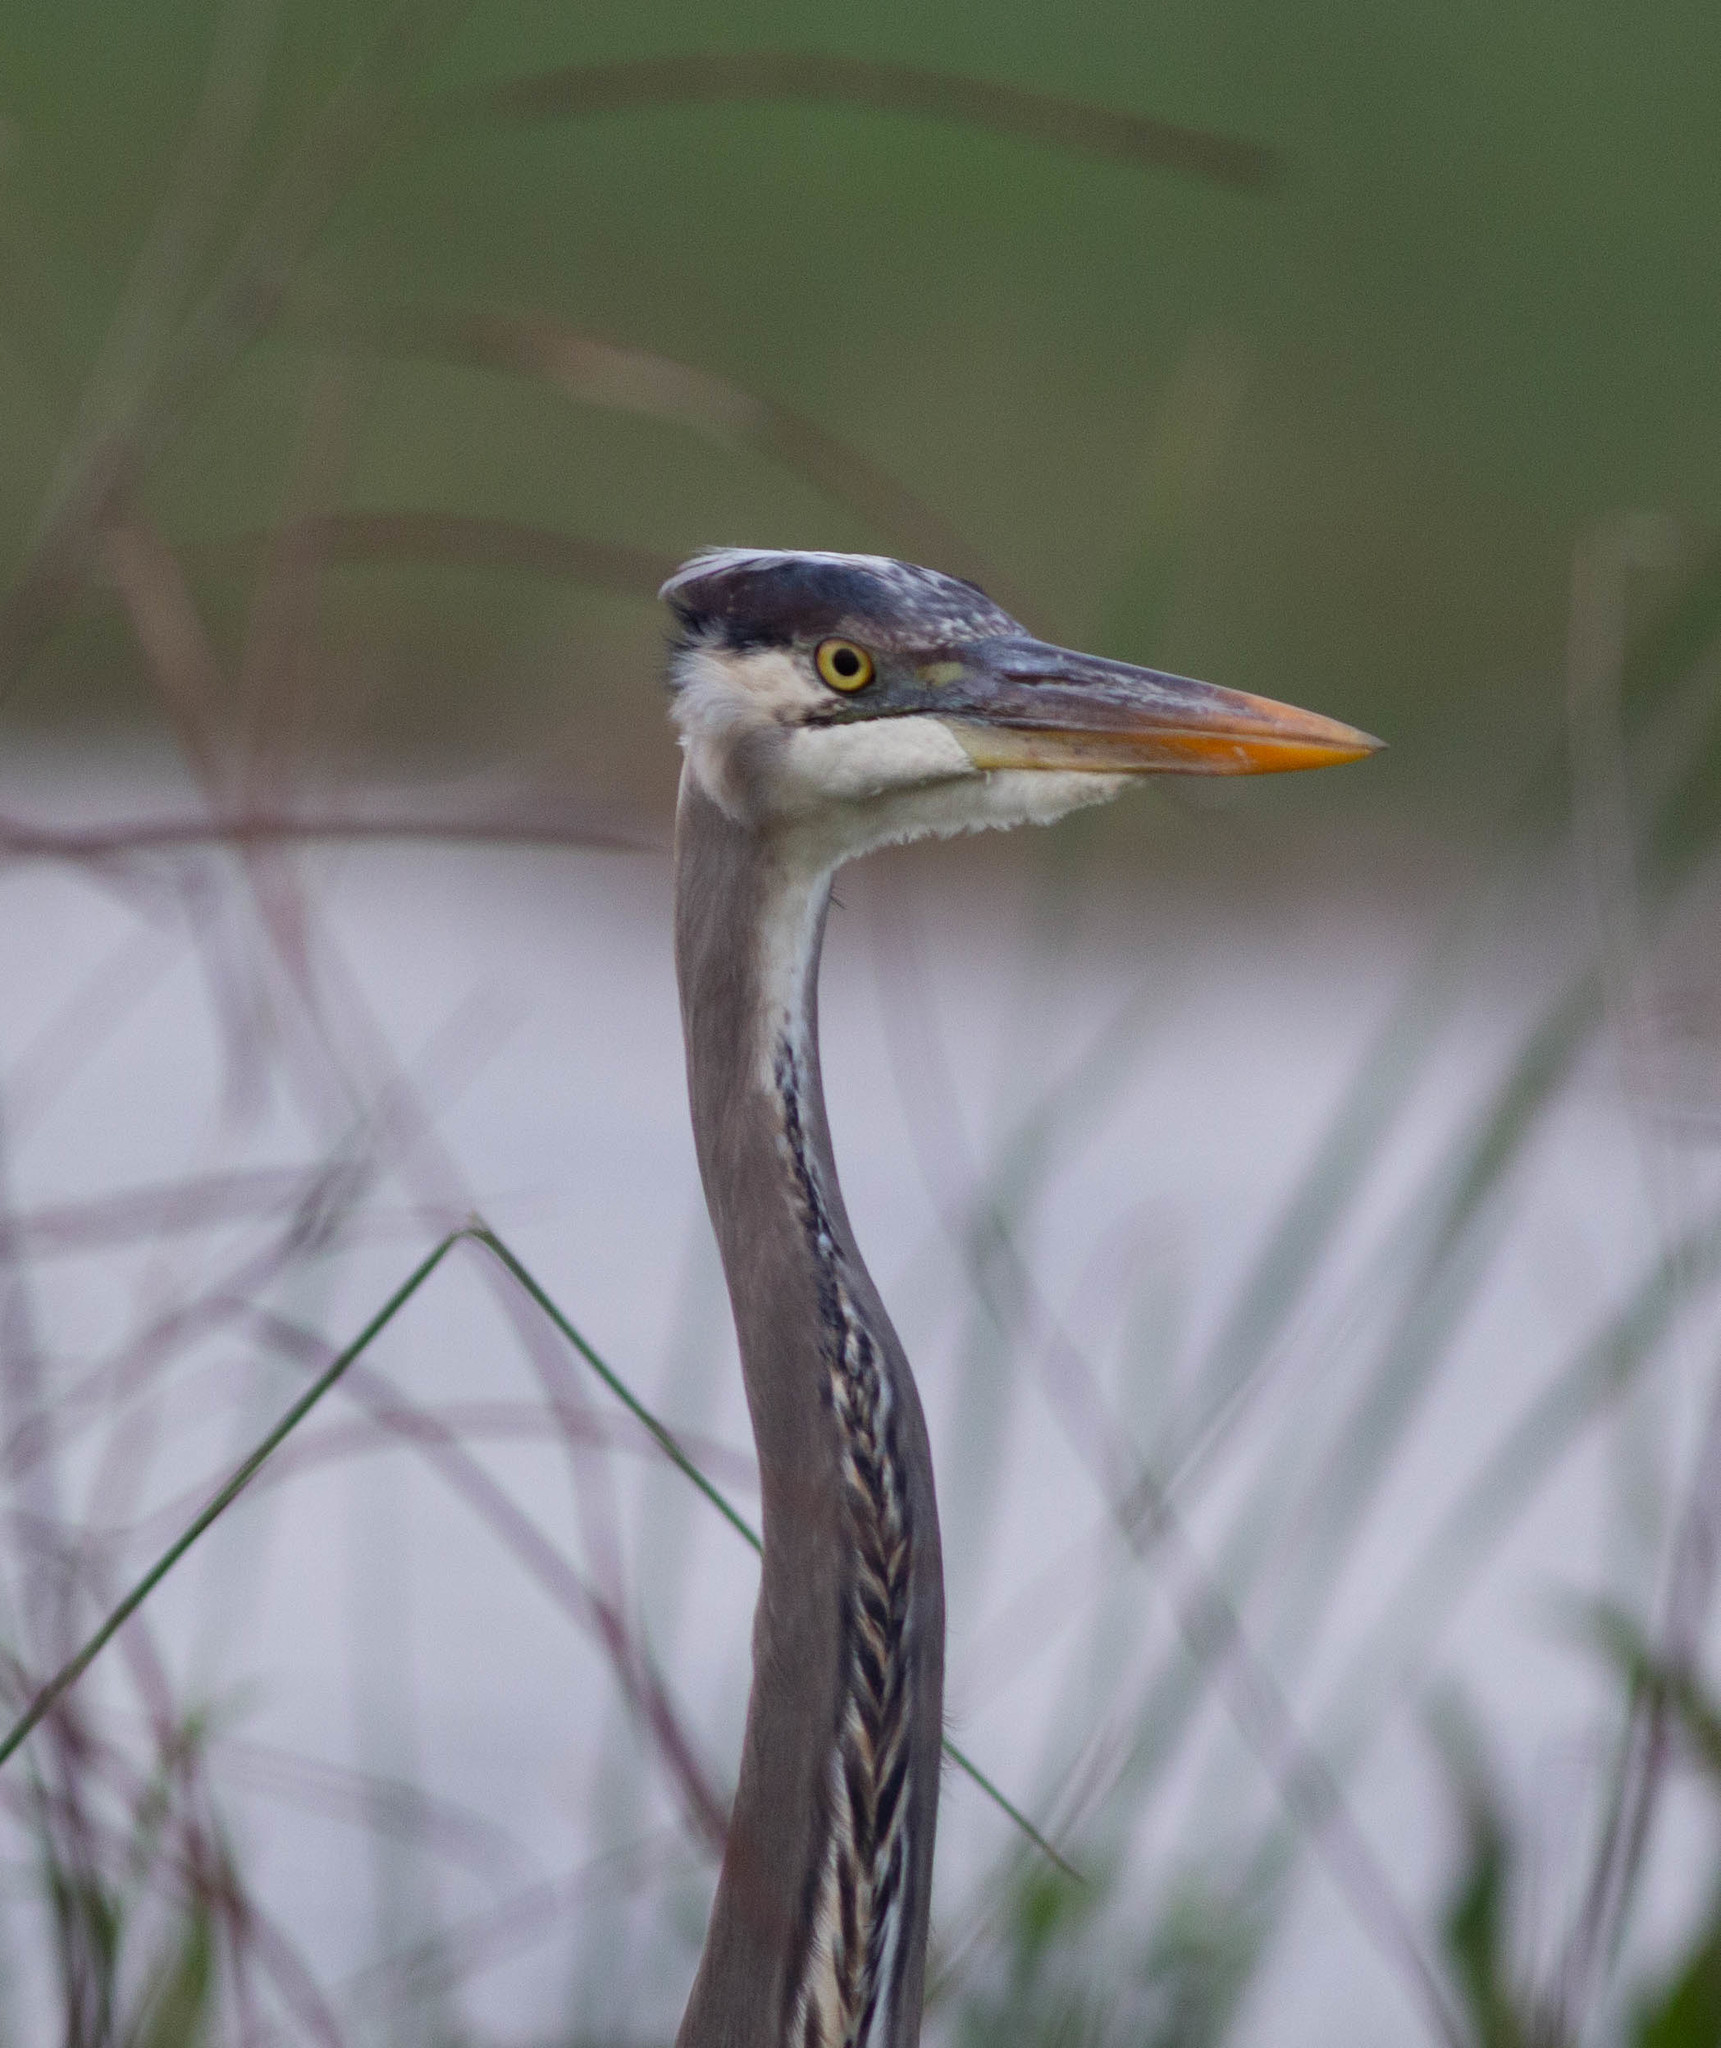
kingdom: Animalia
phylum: Chordata
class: Aves
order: Pelecaniformes
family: Ardeidae
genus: Ardea
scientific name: Ardea herodias
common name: Great blue heron
